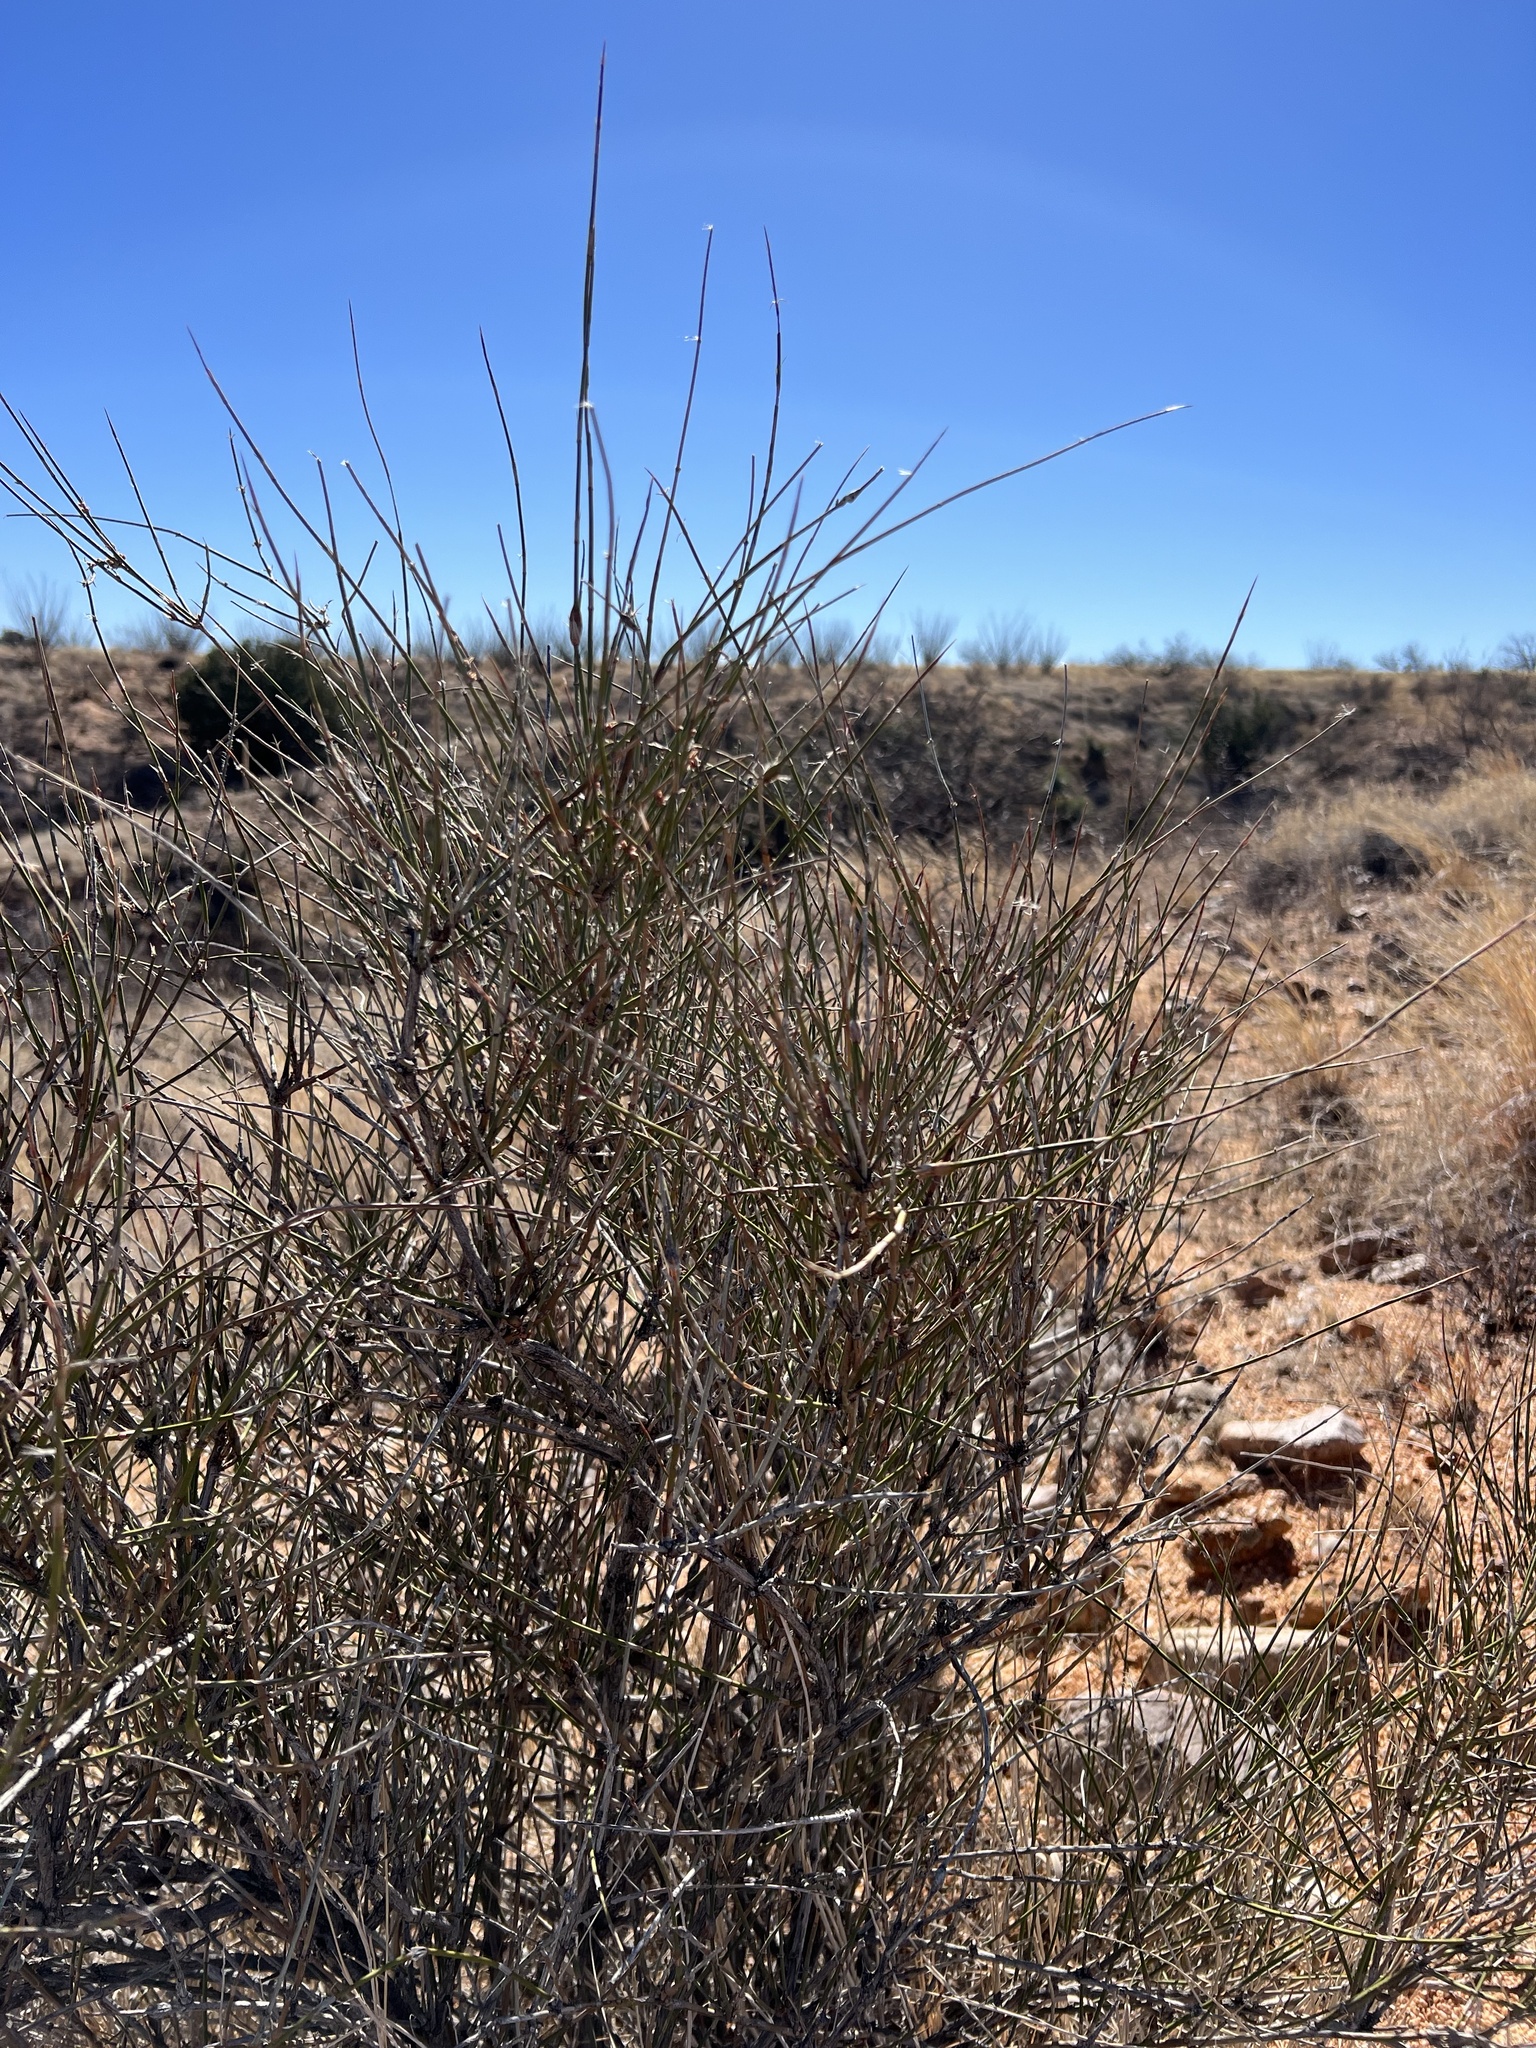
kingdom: Plantae
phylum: Tracheophyta
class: Gnetopsida
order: Ephedrales
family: Ephedraceae
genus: Ephedra
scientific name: Ephedra trifurca
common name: Mexican-tea
